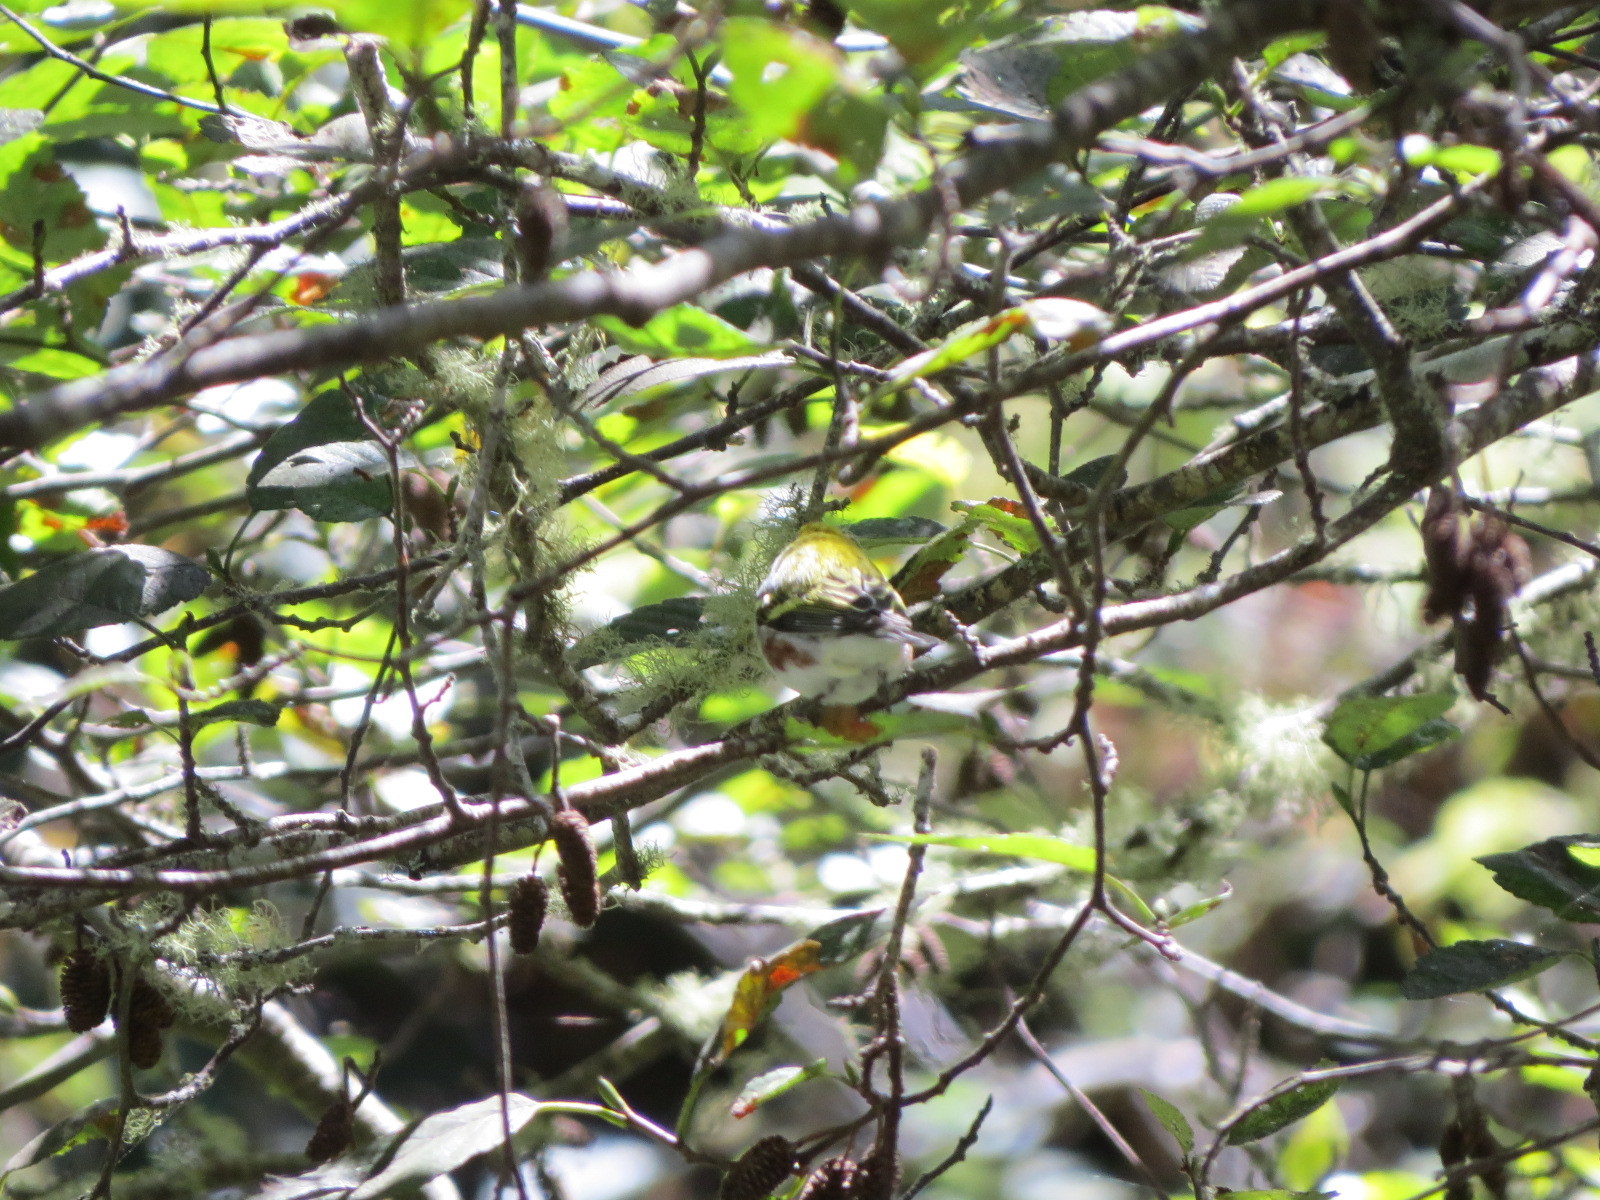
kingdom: Animalia
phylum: Chordata
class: Aves
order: Passeriformes
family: Parulidae
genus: Setophaga
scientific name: Setophaga pensylvanica
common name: Chestnut-sided warbler
